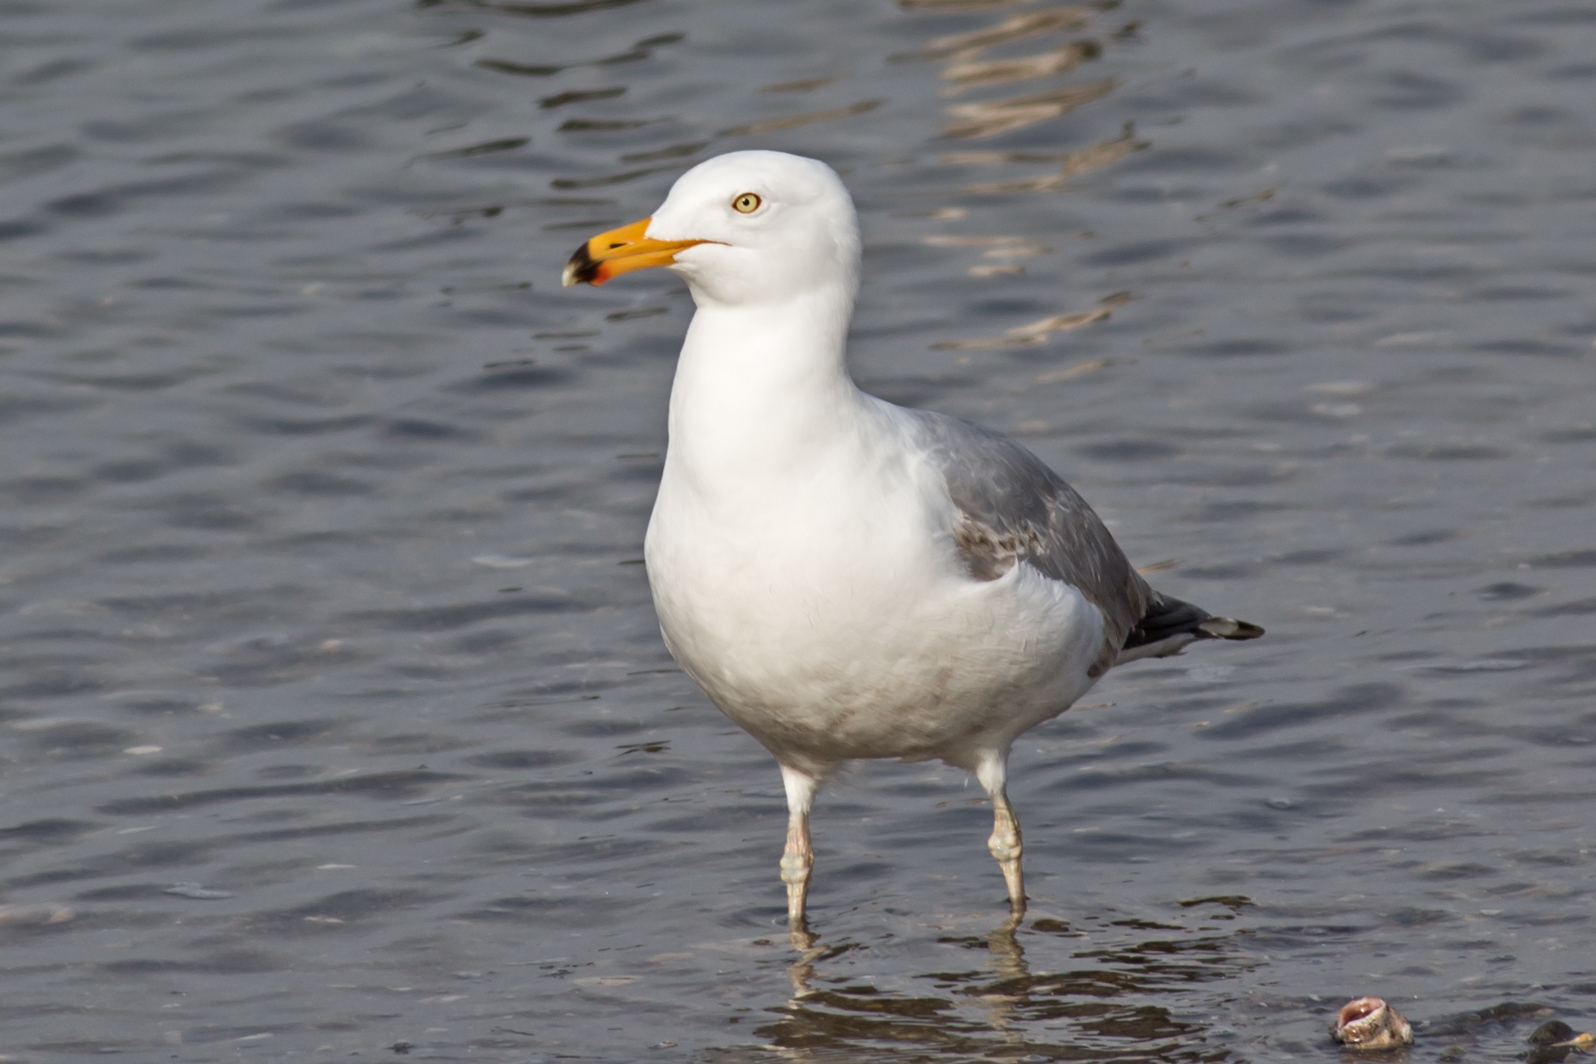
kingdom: Animalia
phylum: Chordata
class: Aves
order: Charadriiformes
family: Laridae
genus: Larus
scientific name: Larus argentatus
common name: Herring gull
